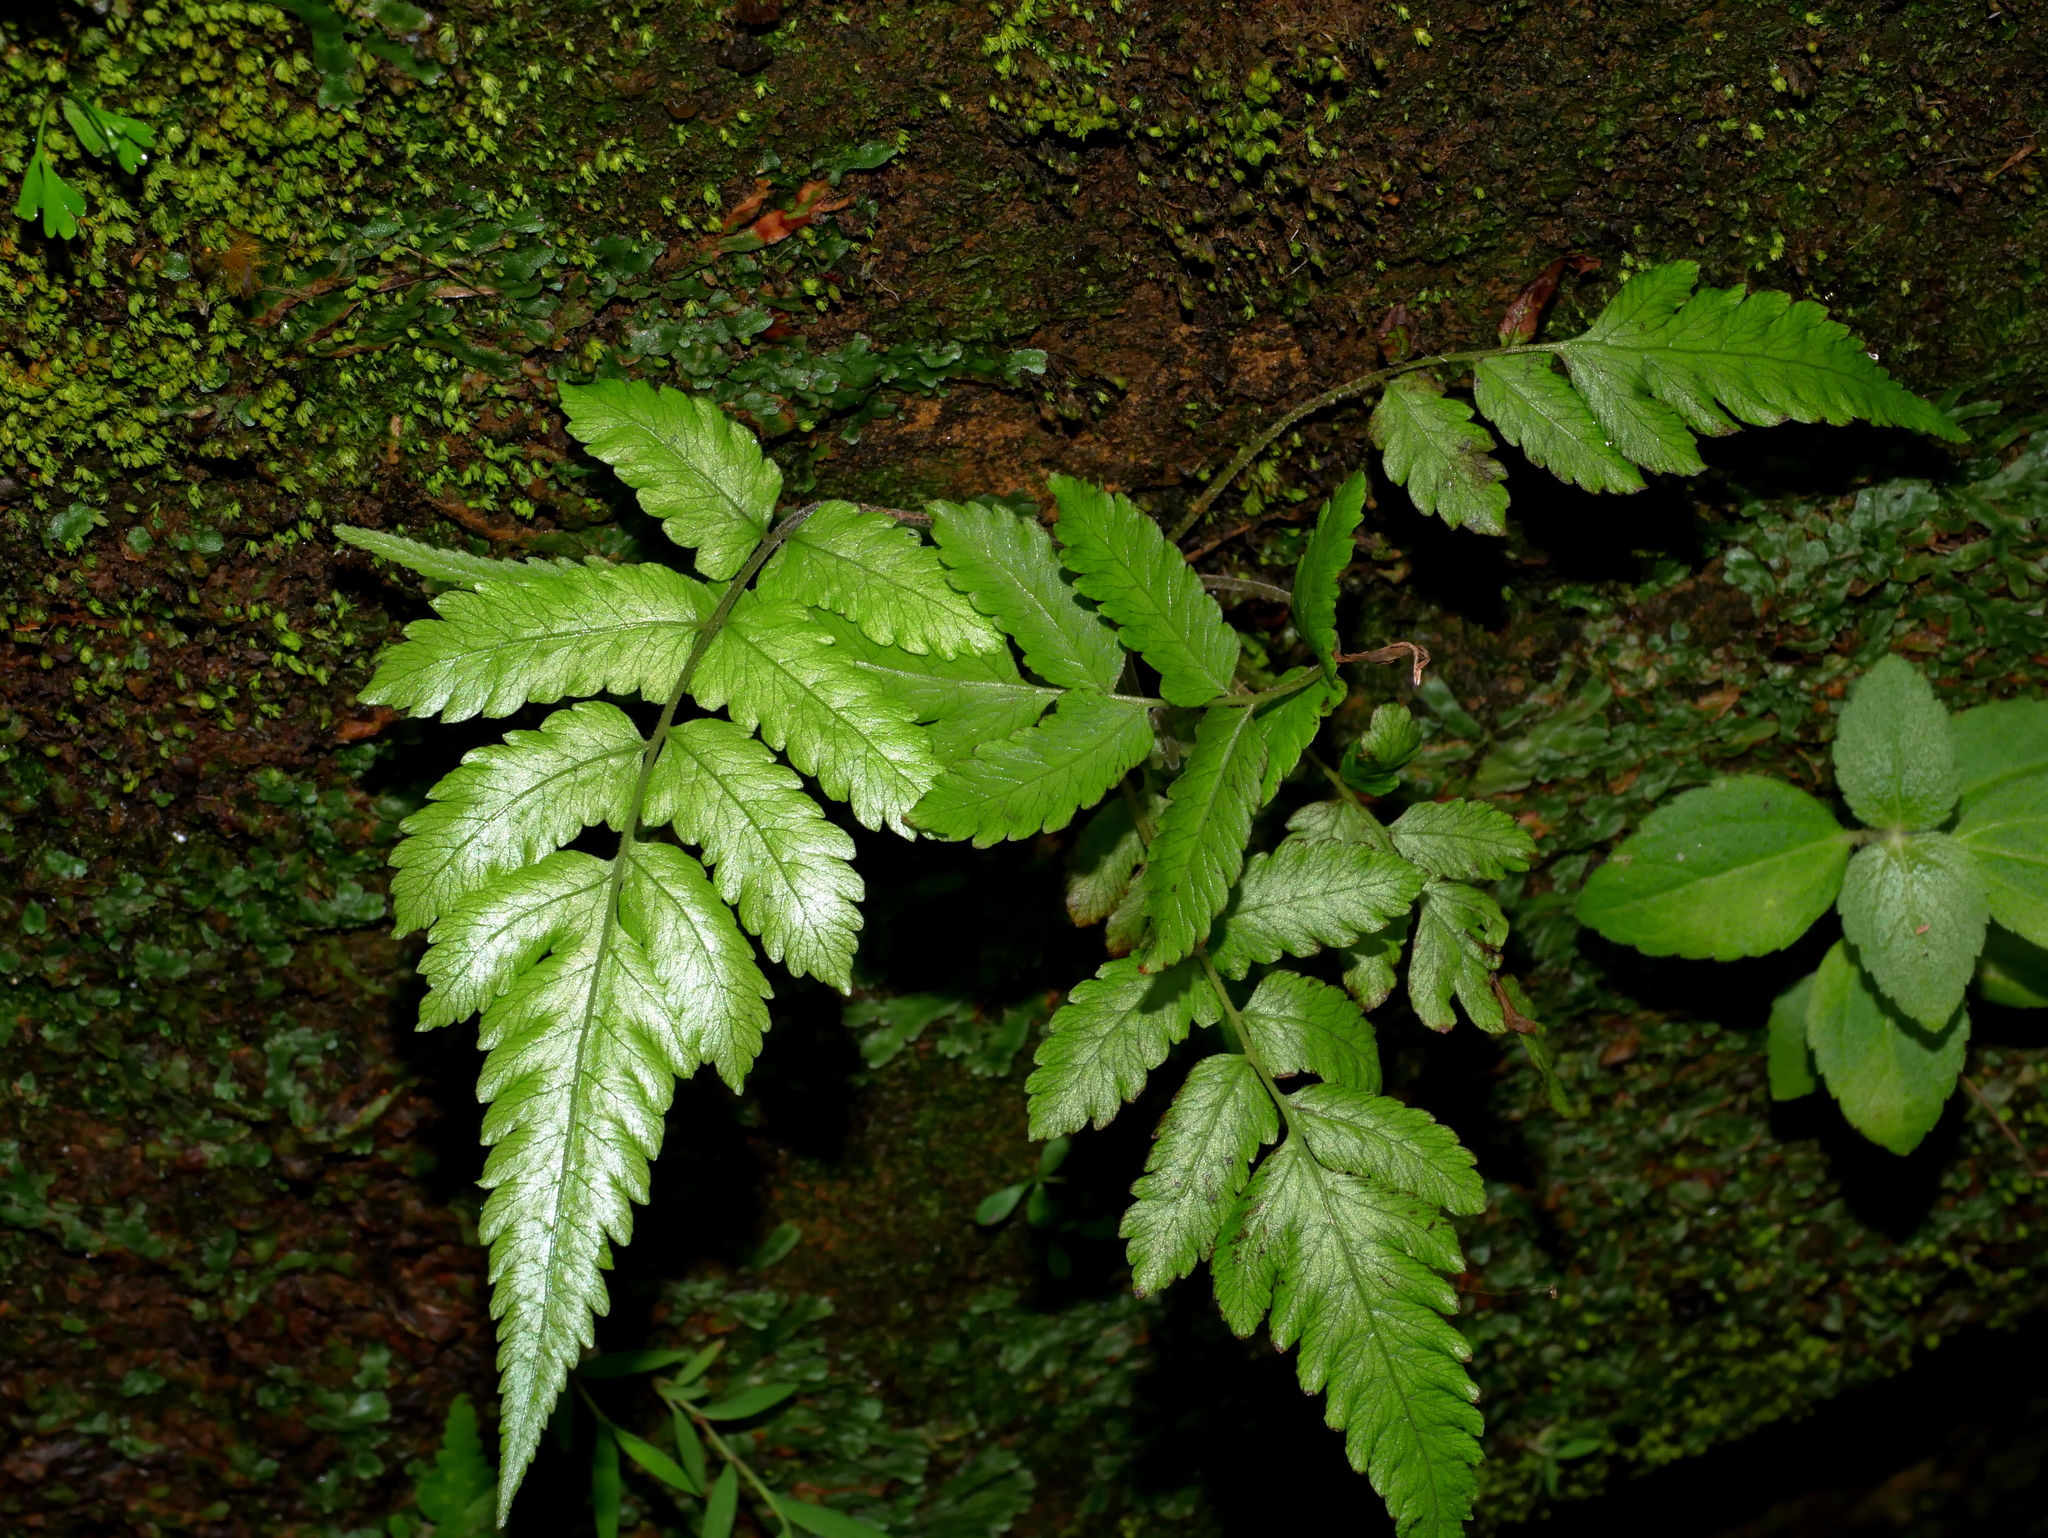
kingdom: Plantae
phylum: Tracheophyta
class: Polypodiopsida
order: Polypodiales
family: Thelypteridaceae
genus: Christella
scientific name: Christella latipinna
